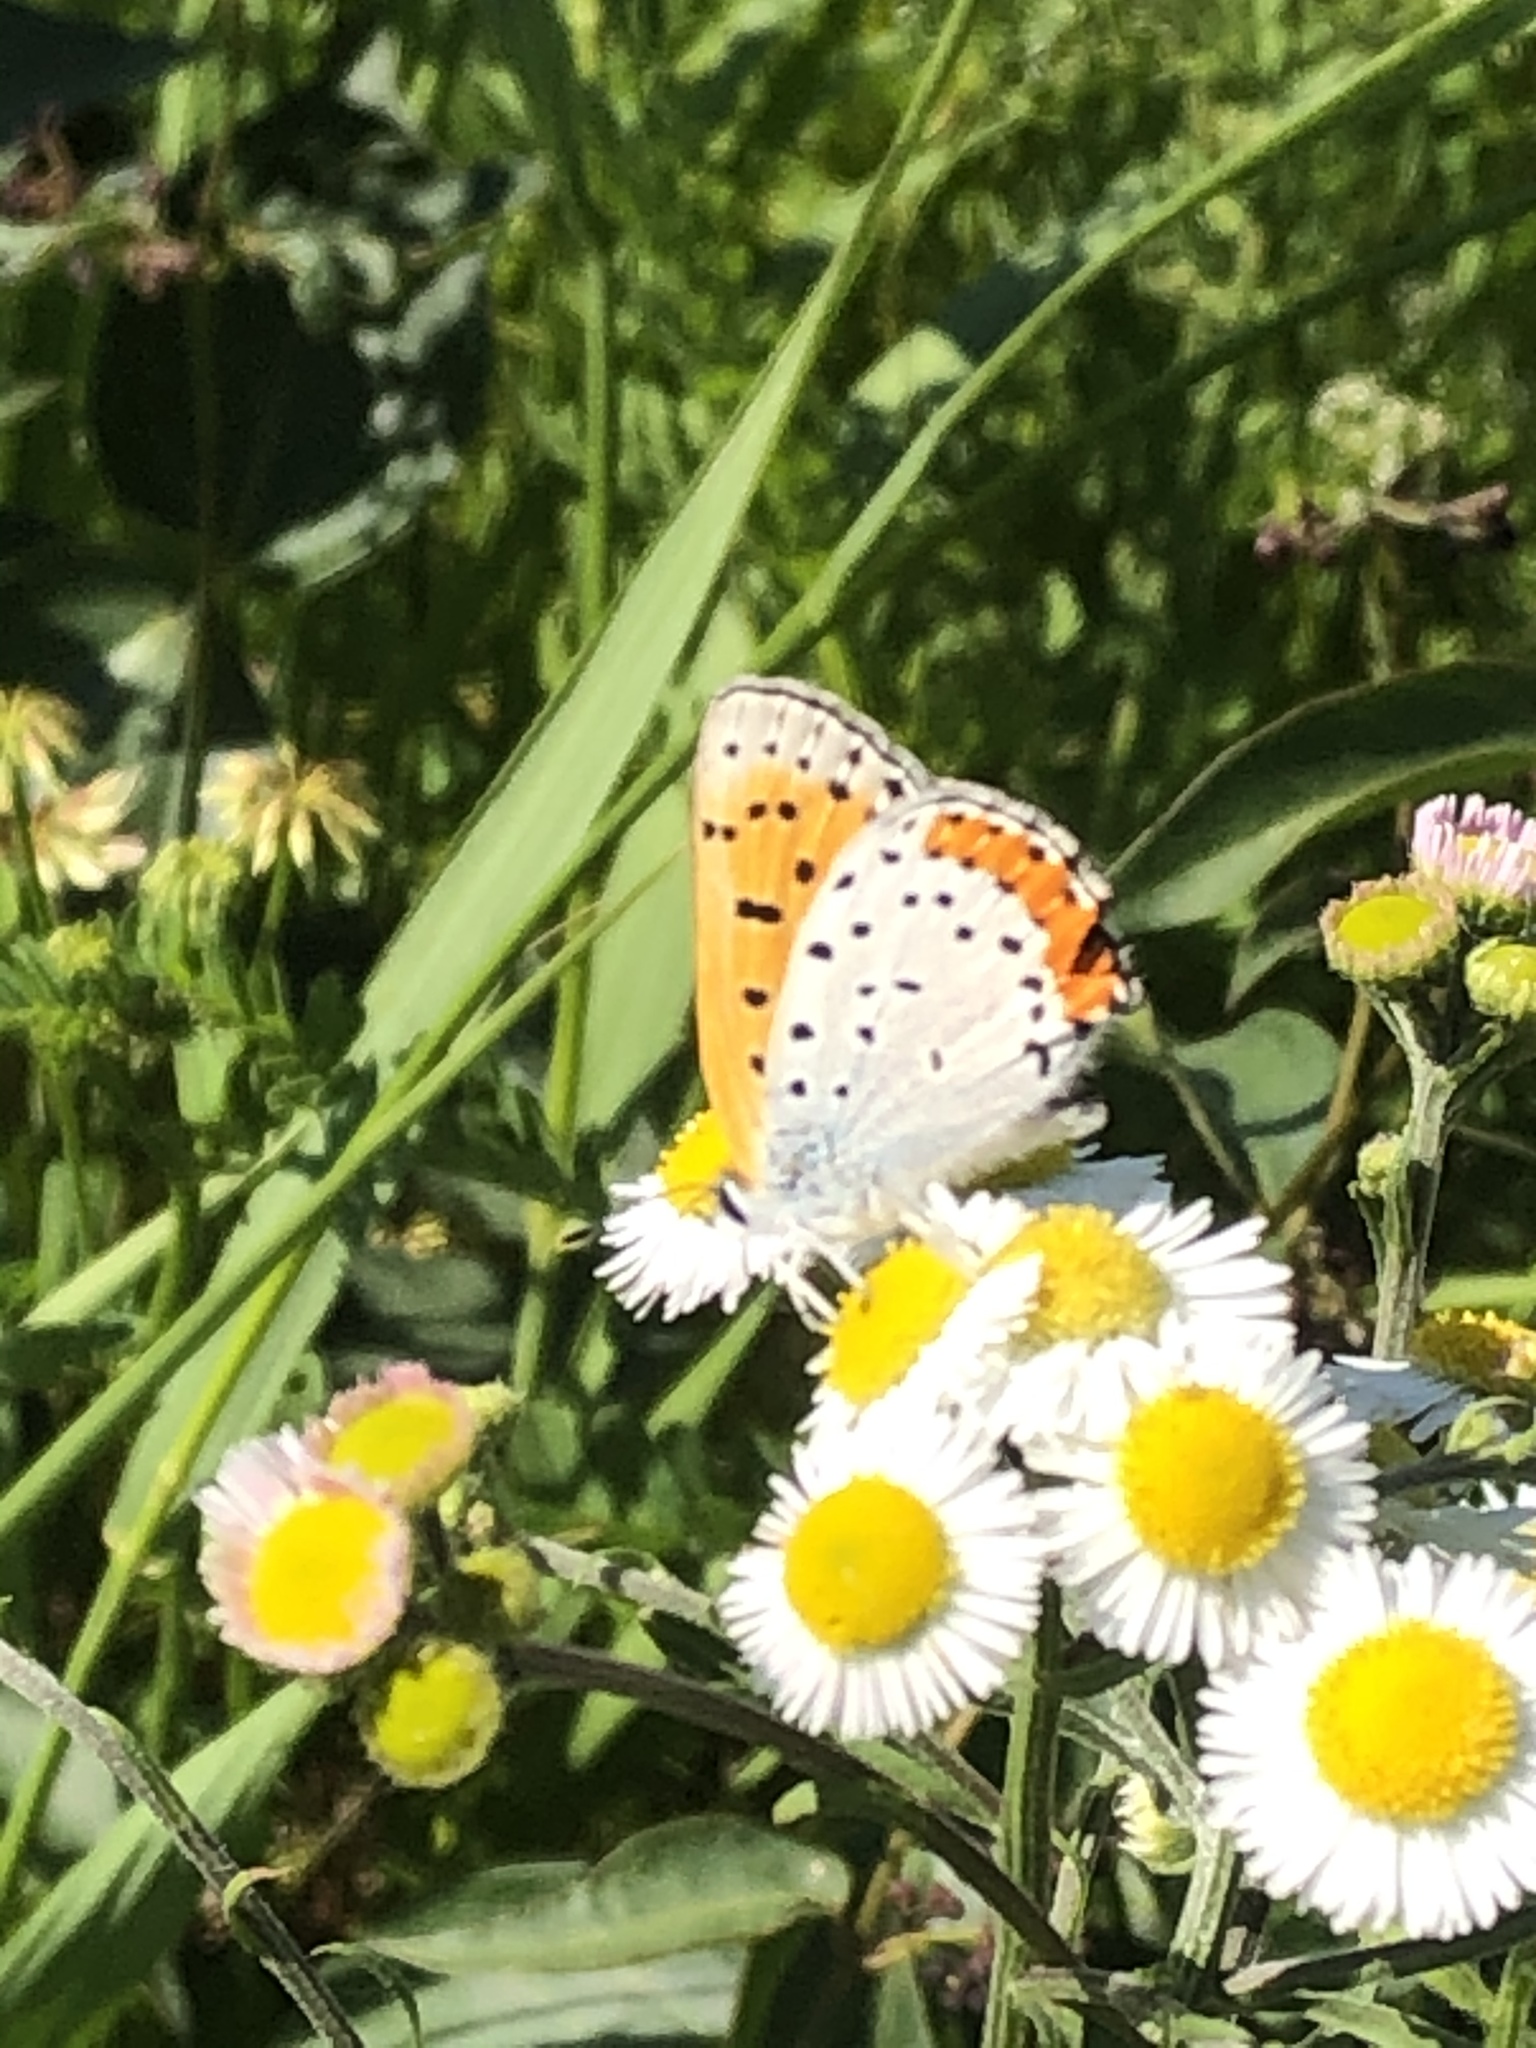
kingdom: Animalia
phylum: Arthropoda
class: Insecta
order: Lepidoptera
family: Lycaenidae
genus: Tharsalea
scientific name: Tharsalea hyllus
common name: Bronze copper
